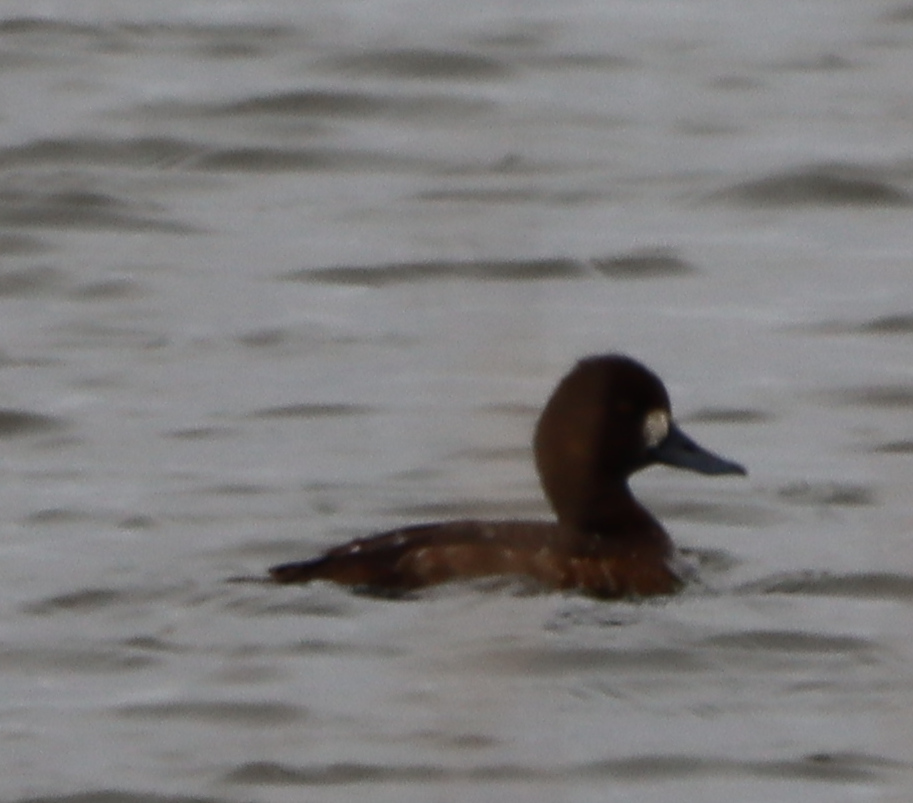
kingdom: Animalia
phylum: Chordata
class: Aves
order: Anseriformes
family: Anatidae
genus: Aythya
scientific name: Aythya affinis
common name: Lesser scaup
